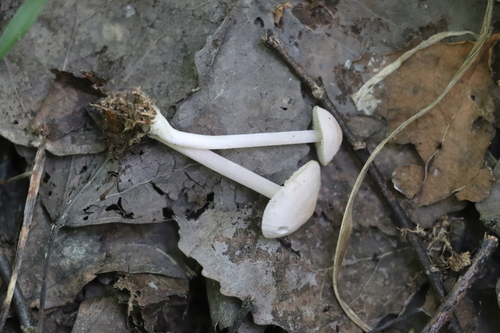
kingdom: Fungi
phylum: Basidiomycota
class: Agaricomycetes
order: Agaricales
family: Mycenaceae
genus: Mycena
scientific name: Mycena pura
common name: Lilac bonnet
